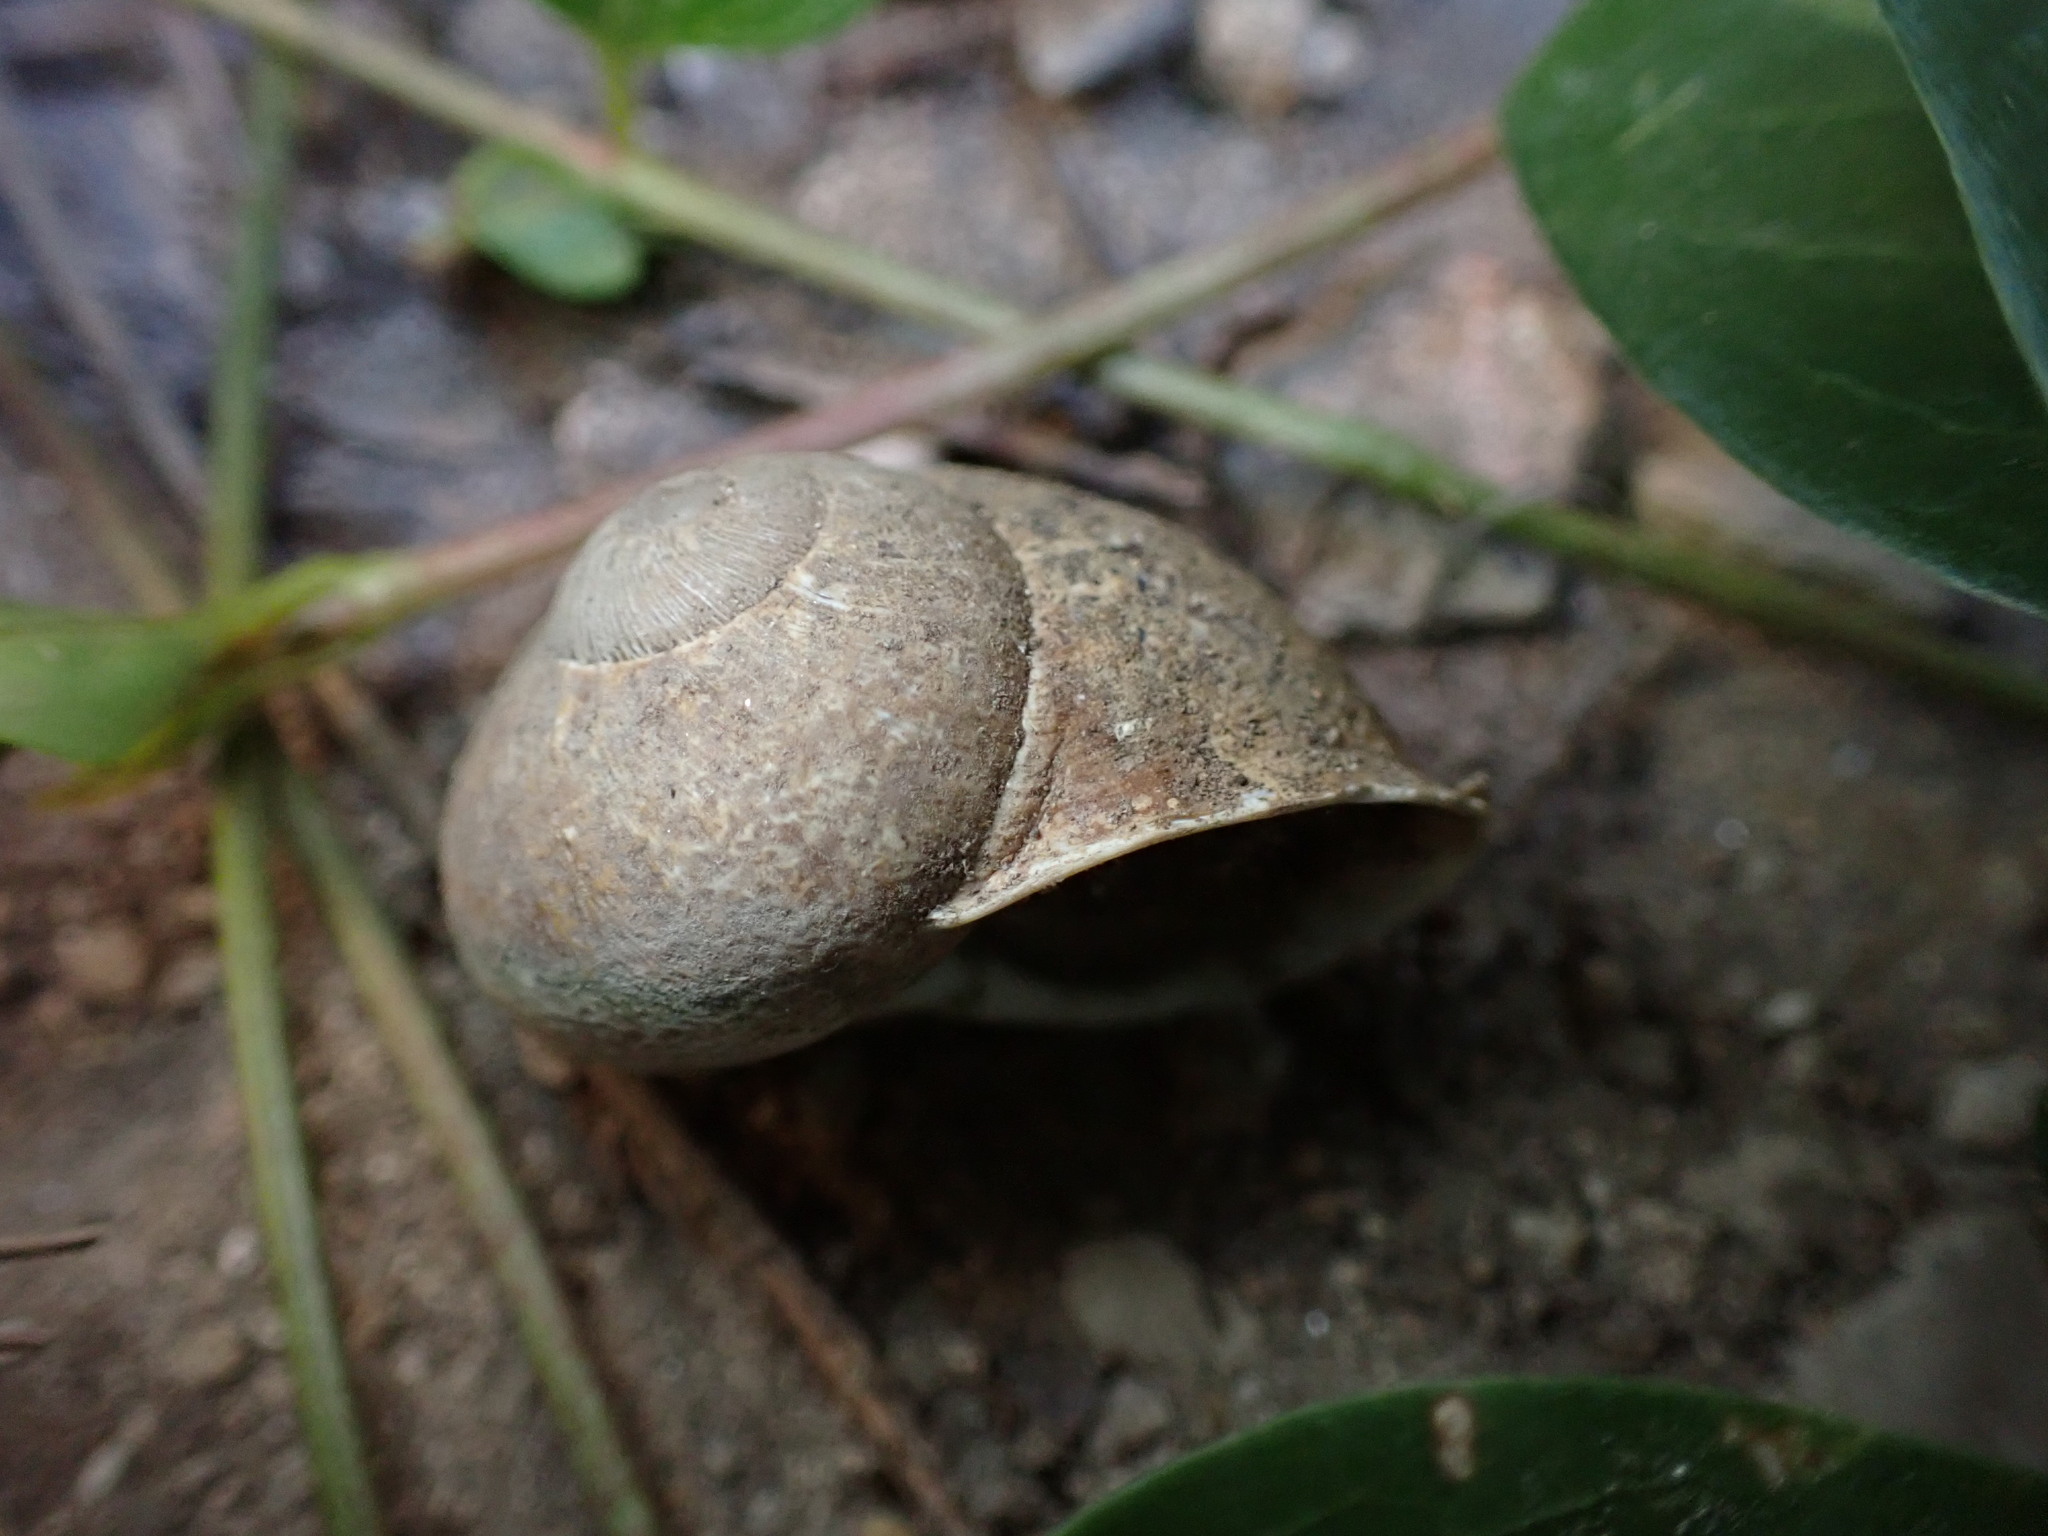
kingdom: Animalia
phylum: Mollusca
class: Gastropoda
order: Stylommatophora
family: Helicidae
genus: Cornu
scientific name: Cornu aspersum
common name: Brown garden snail
